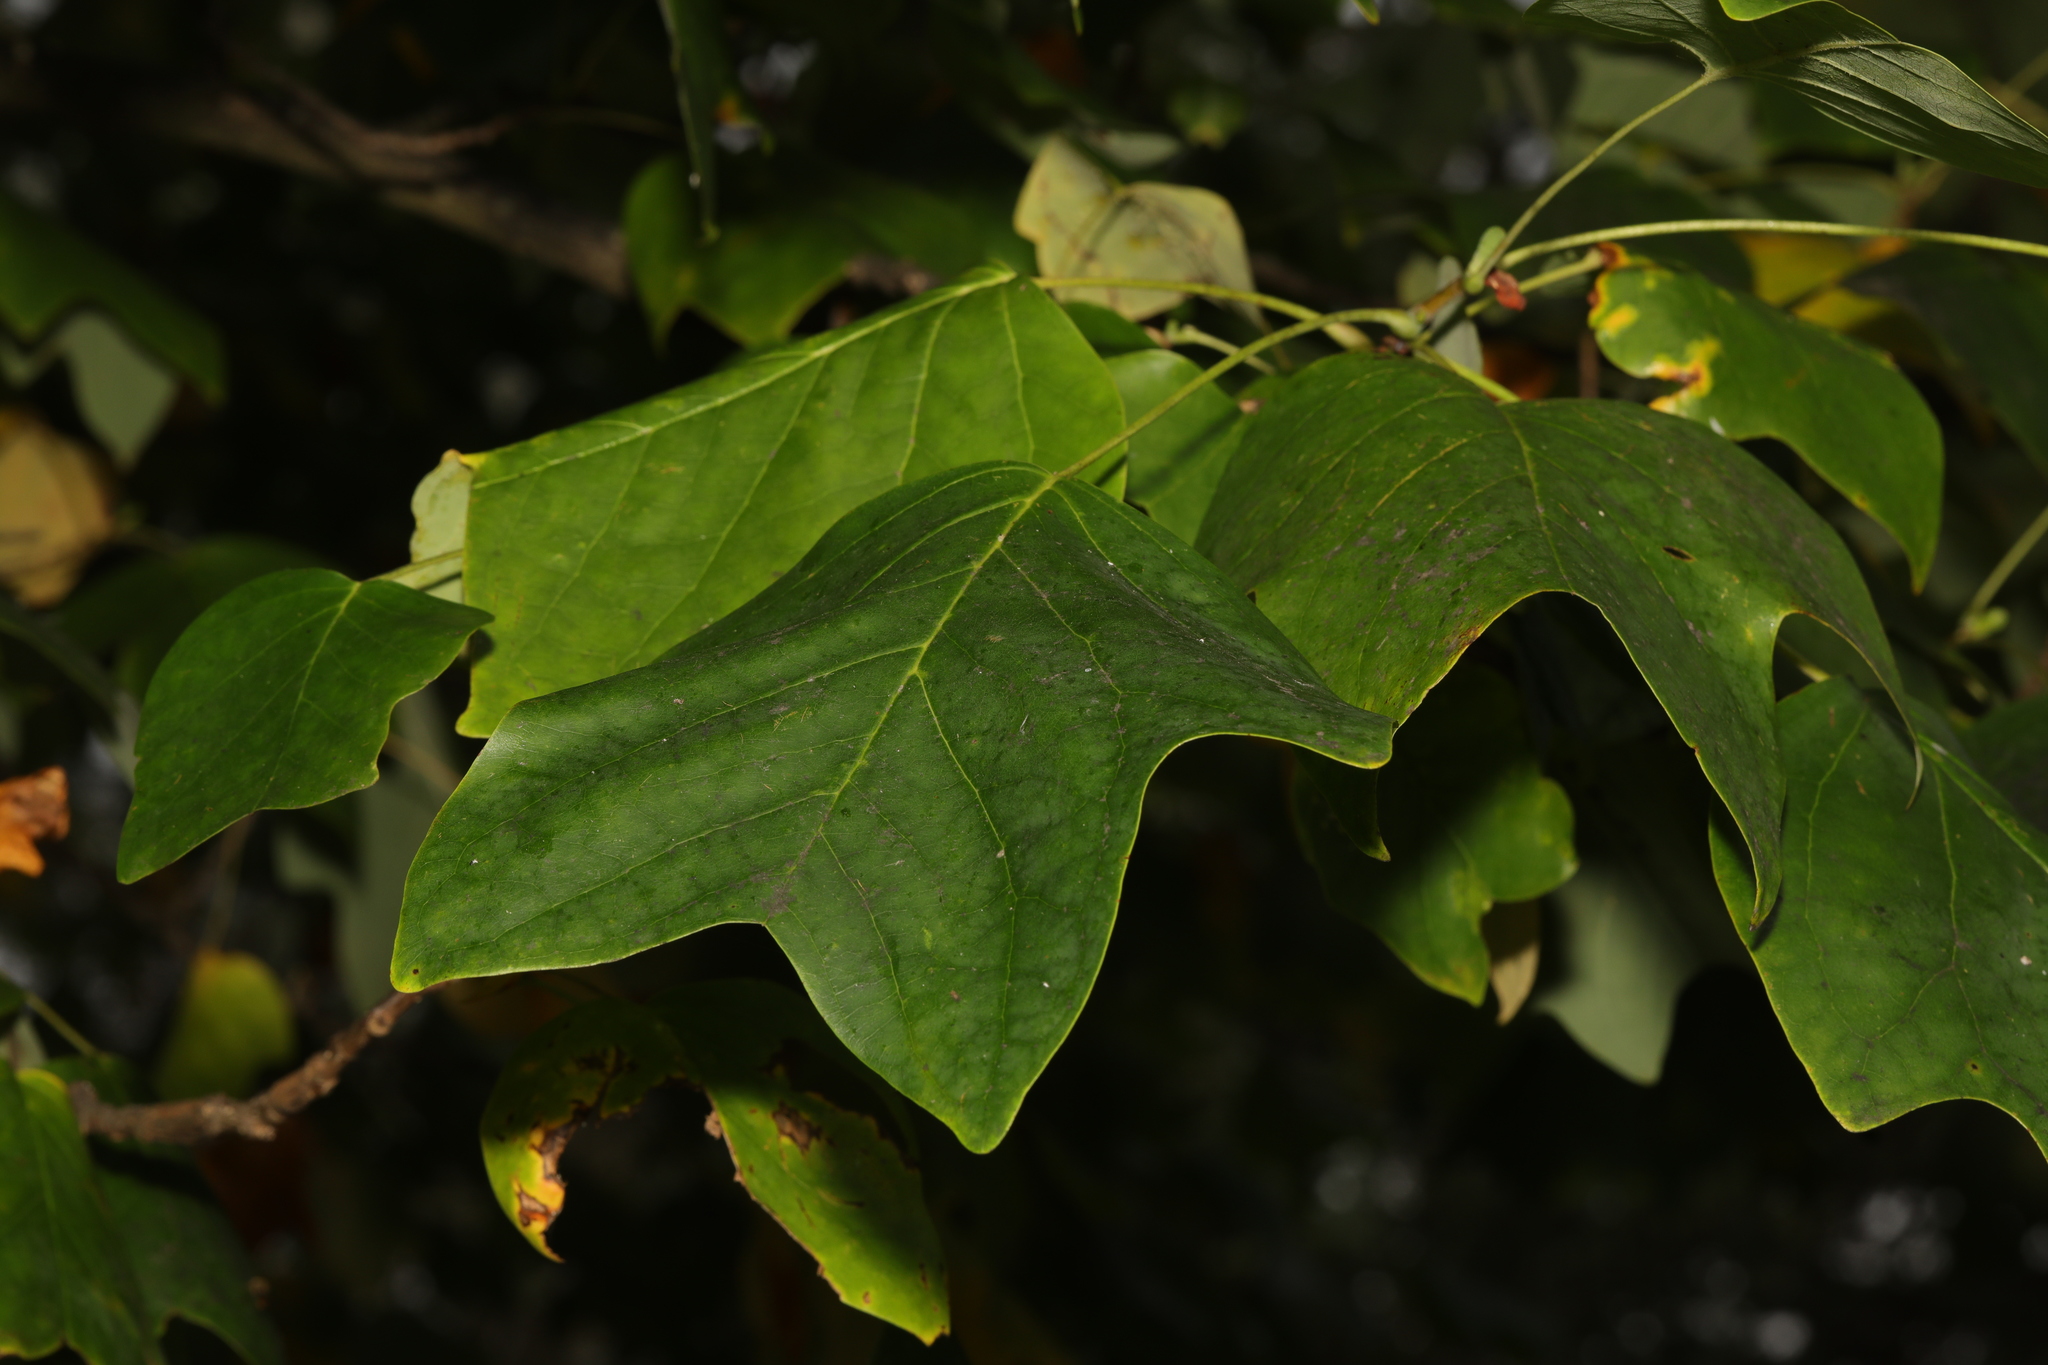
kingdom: Plantae
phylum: Tracheophyta
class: Magnoliopsida
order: Magnoliales
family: Magnoliaceae
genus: Liriodendron
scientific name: Liriodendron tulipifera
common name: Tulip tree
